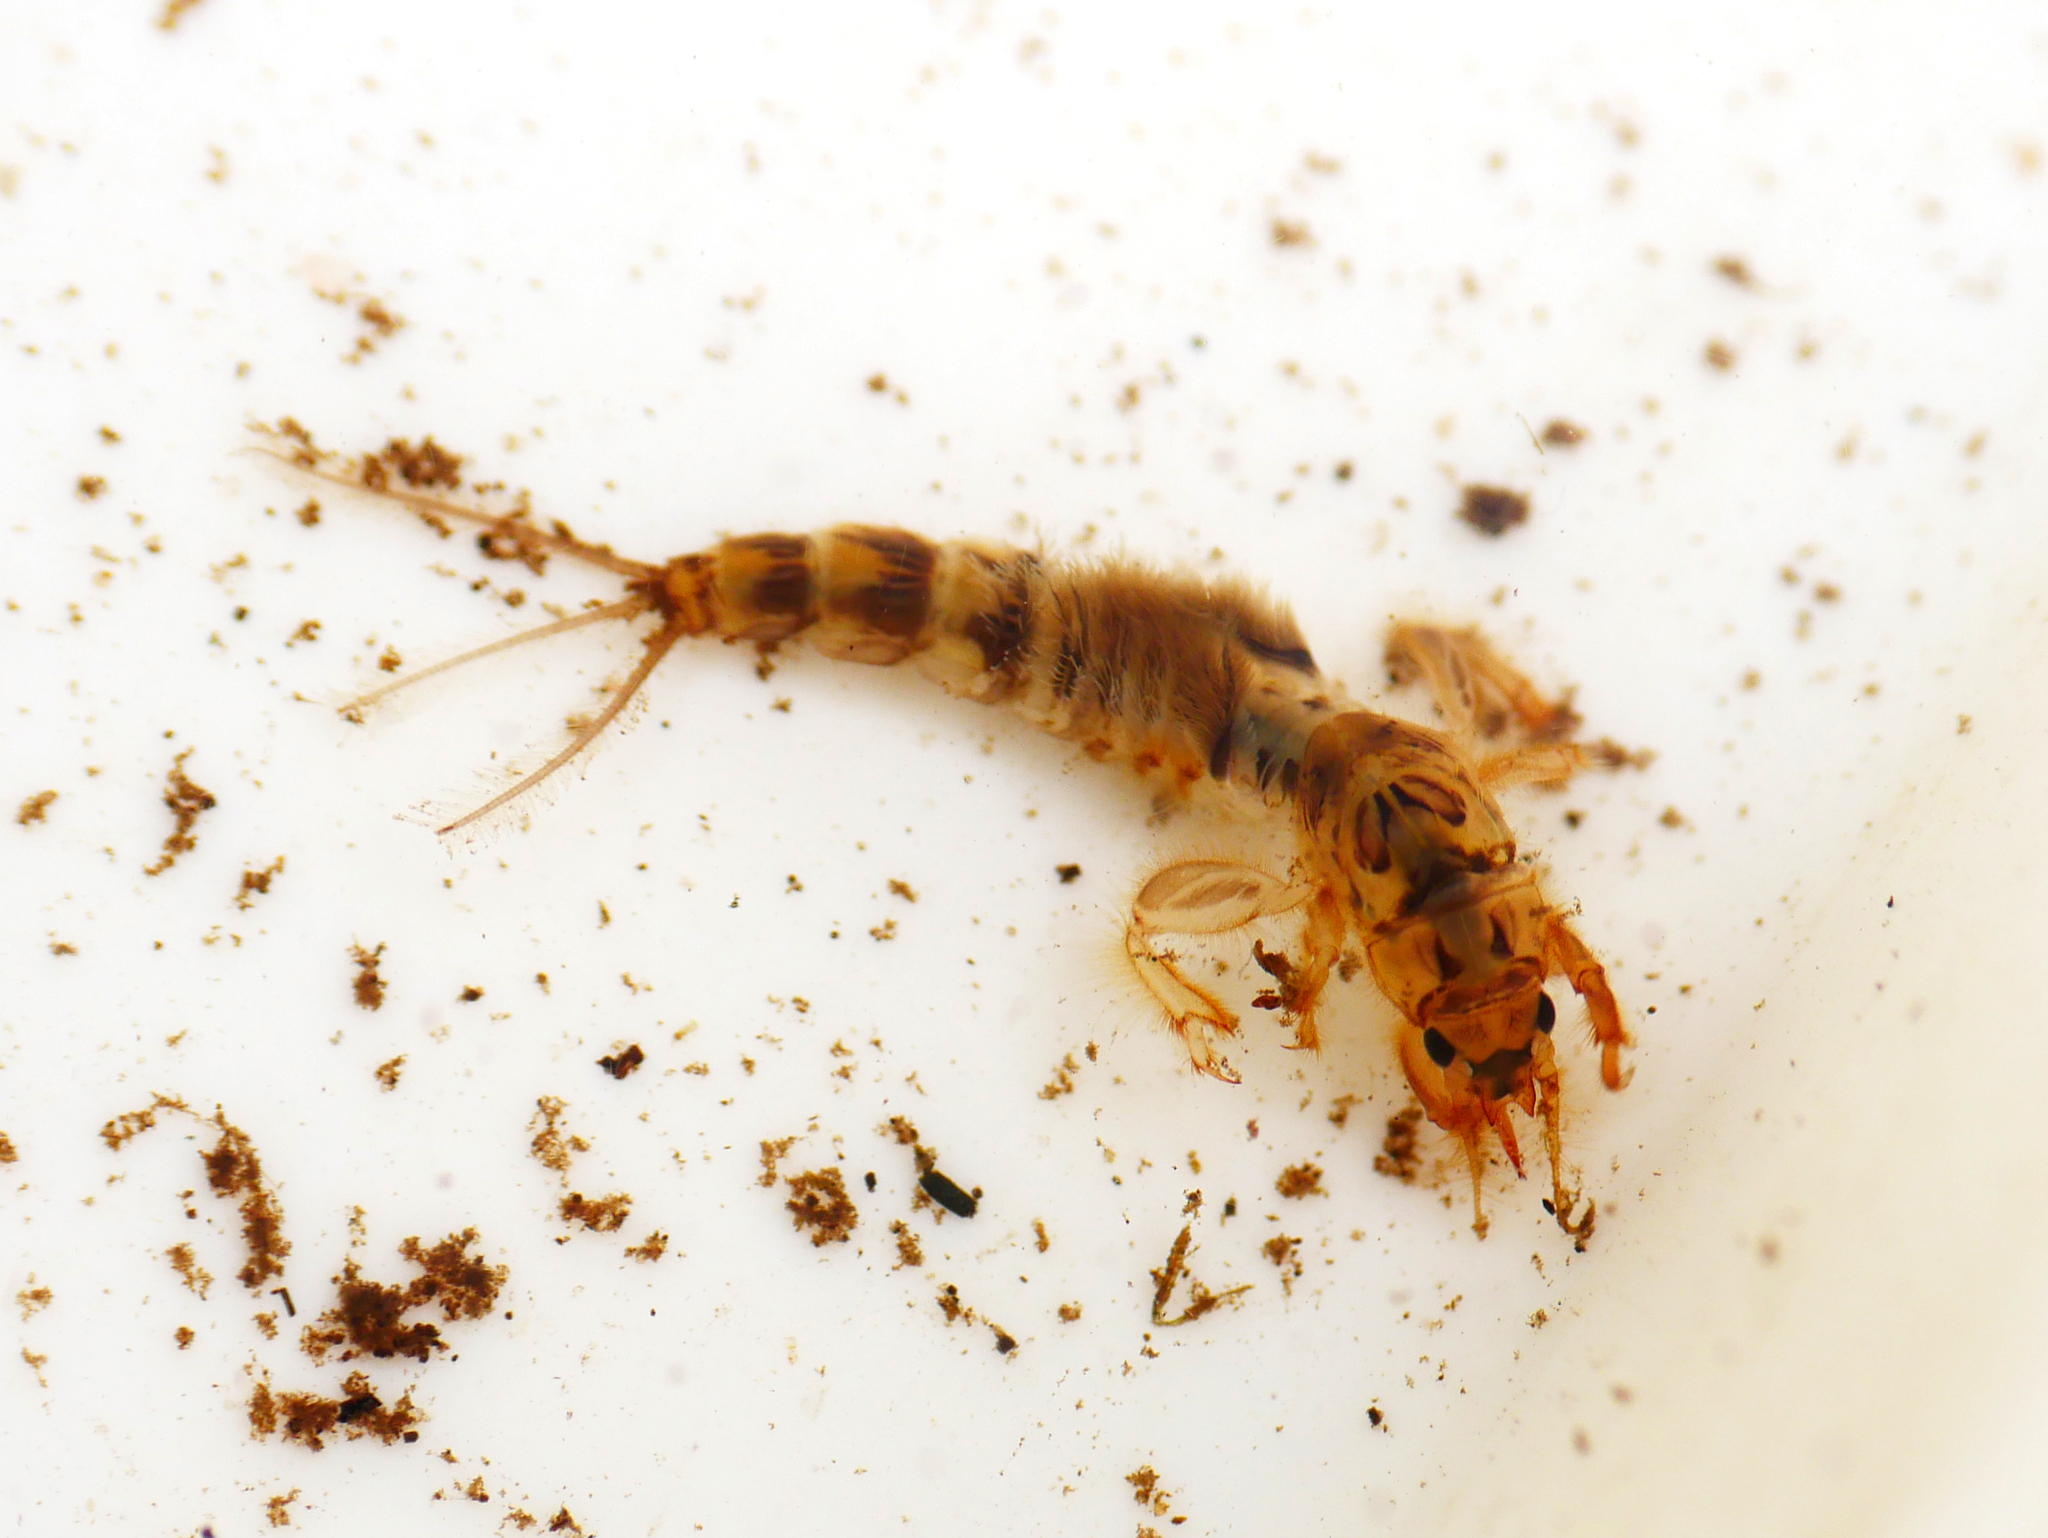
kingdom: Animalia
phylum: Arthropoda
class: Insecta
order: Ephemeroptera
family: Ephemeridae
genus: Ephemera
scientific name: Ephemera danica
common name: Green dun
